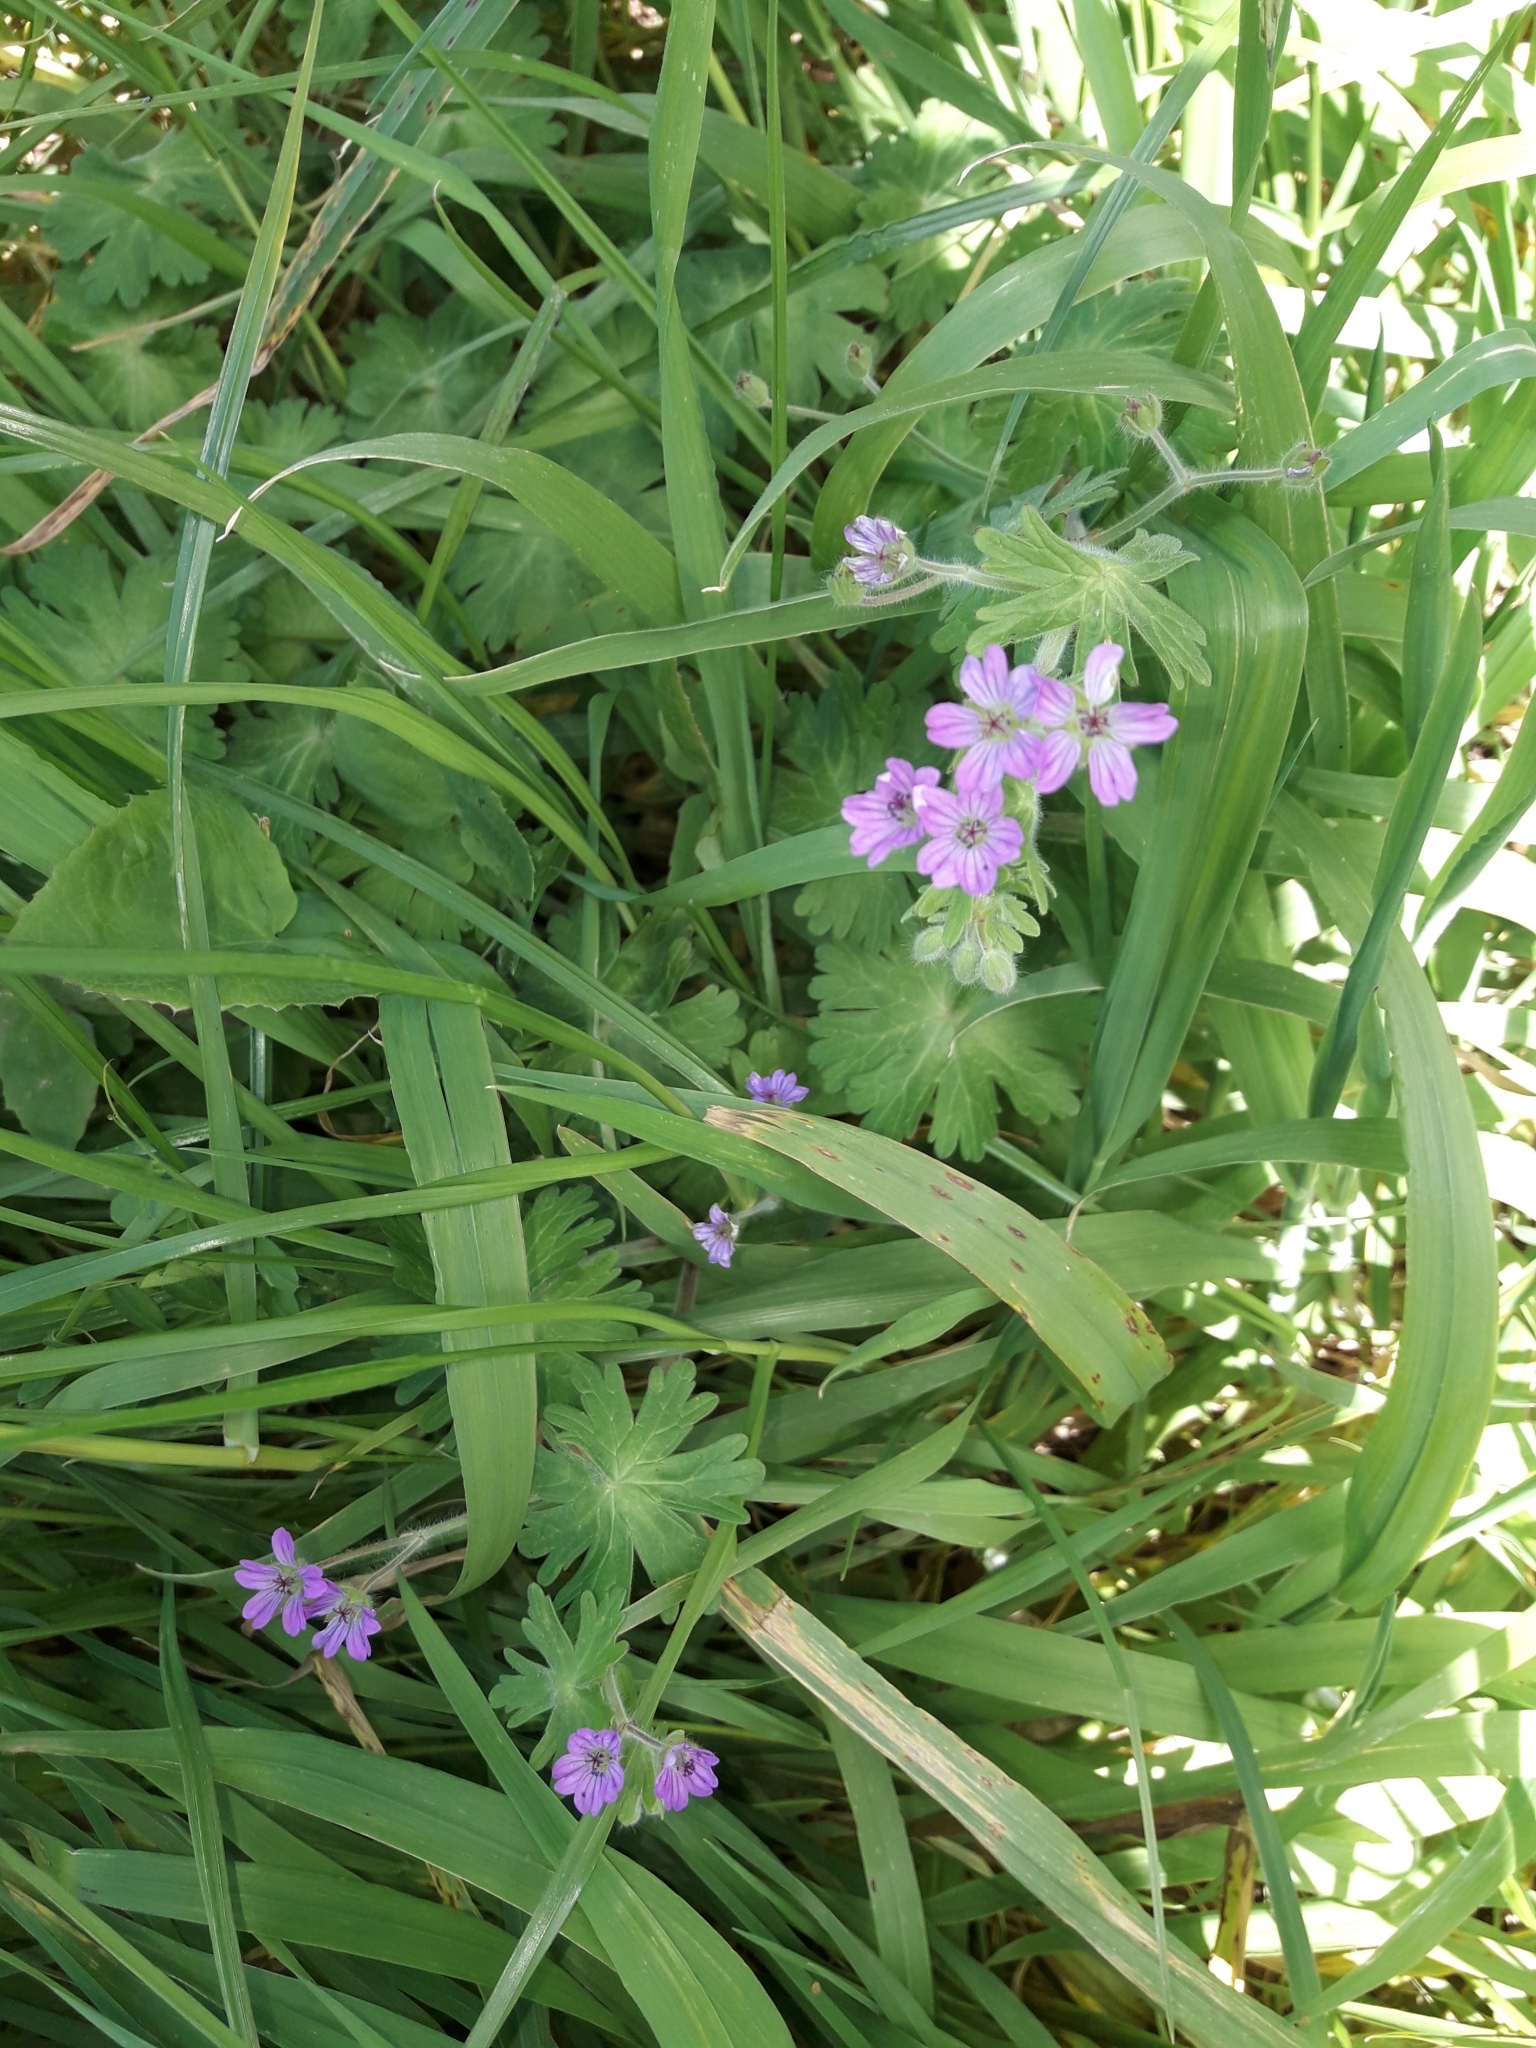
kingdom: Plantae
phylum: Tracheophyta
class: Magnoliopsida
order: Geraniales
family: Geraniaceae
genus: Geranium
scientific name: Geranium molle
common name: Dove's-foot crane's-bill
